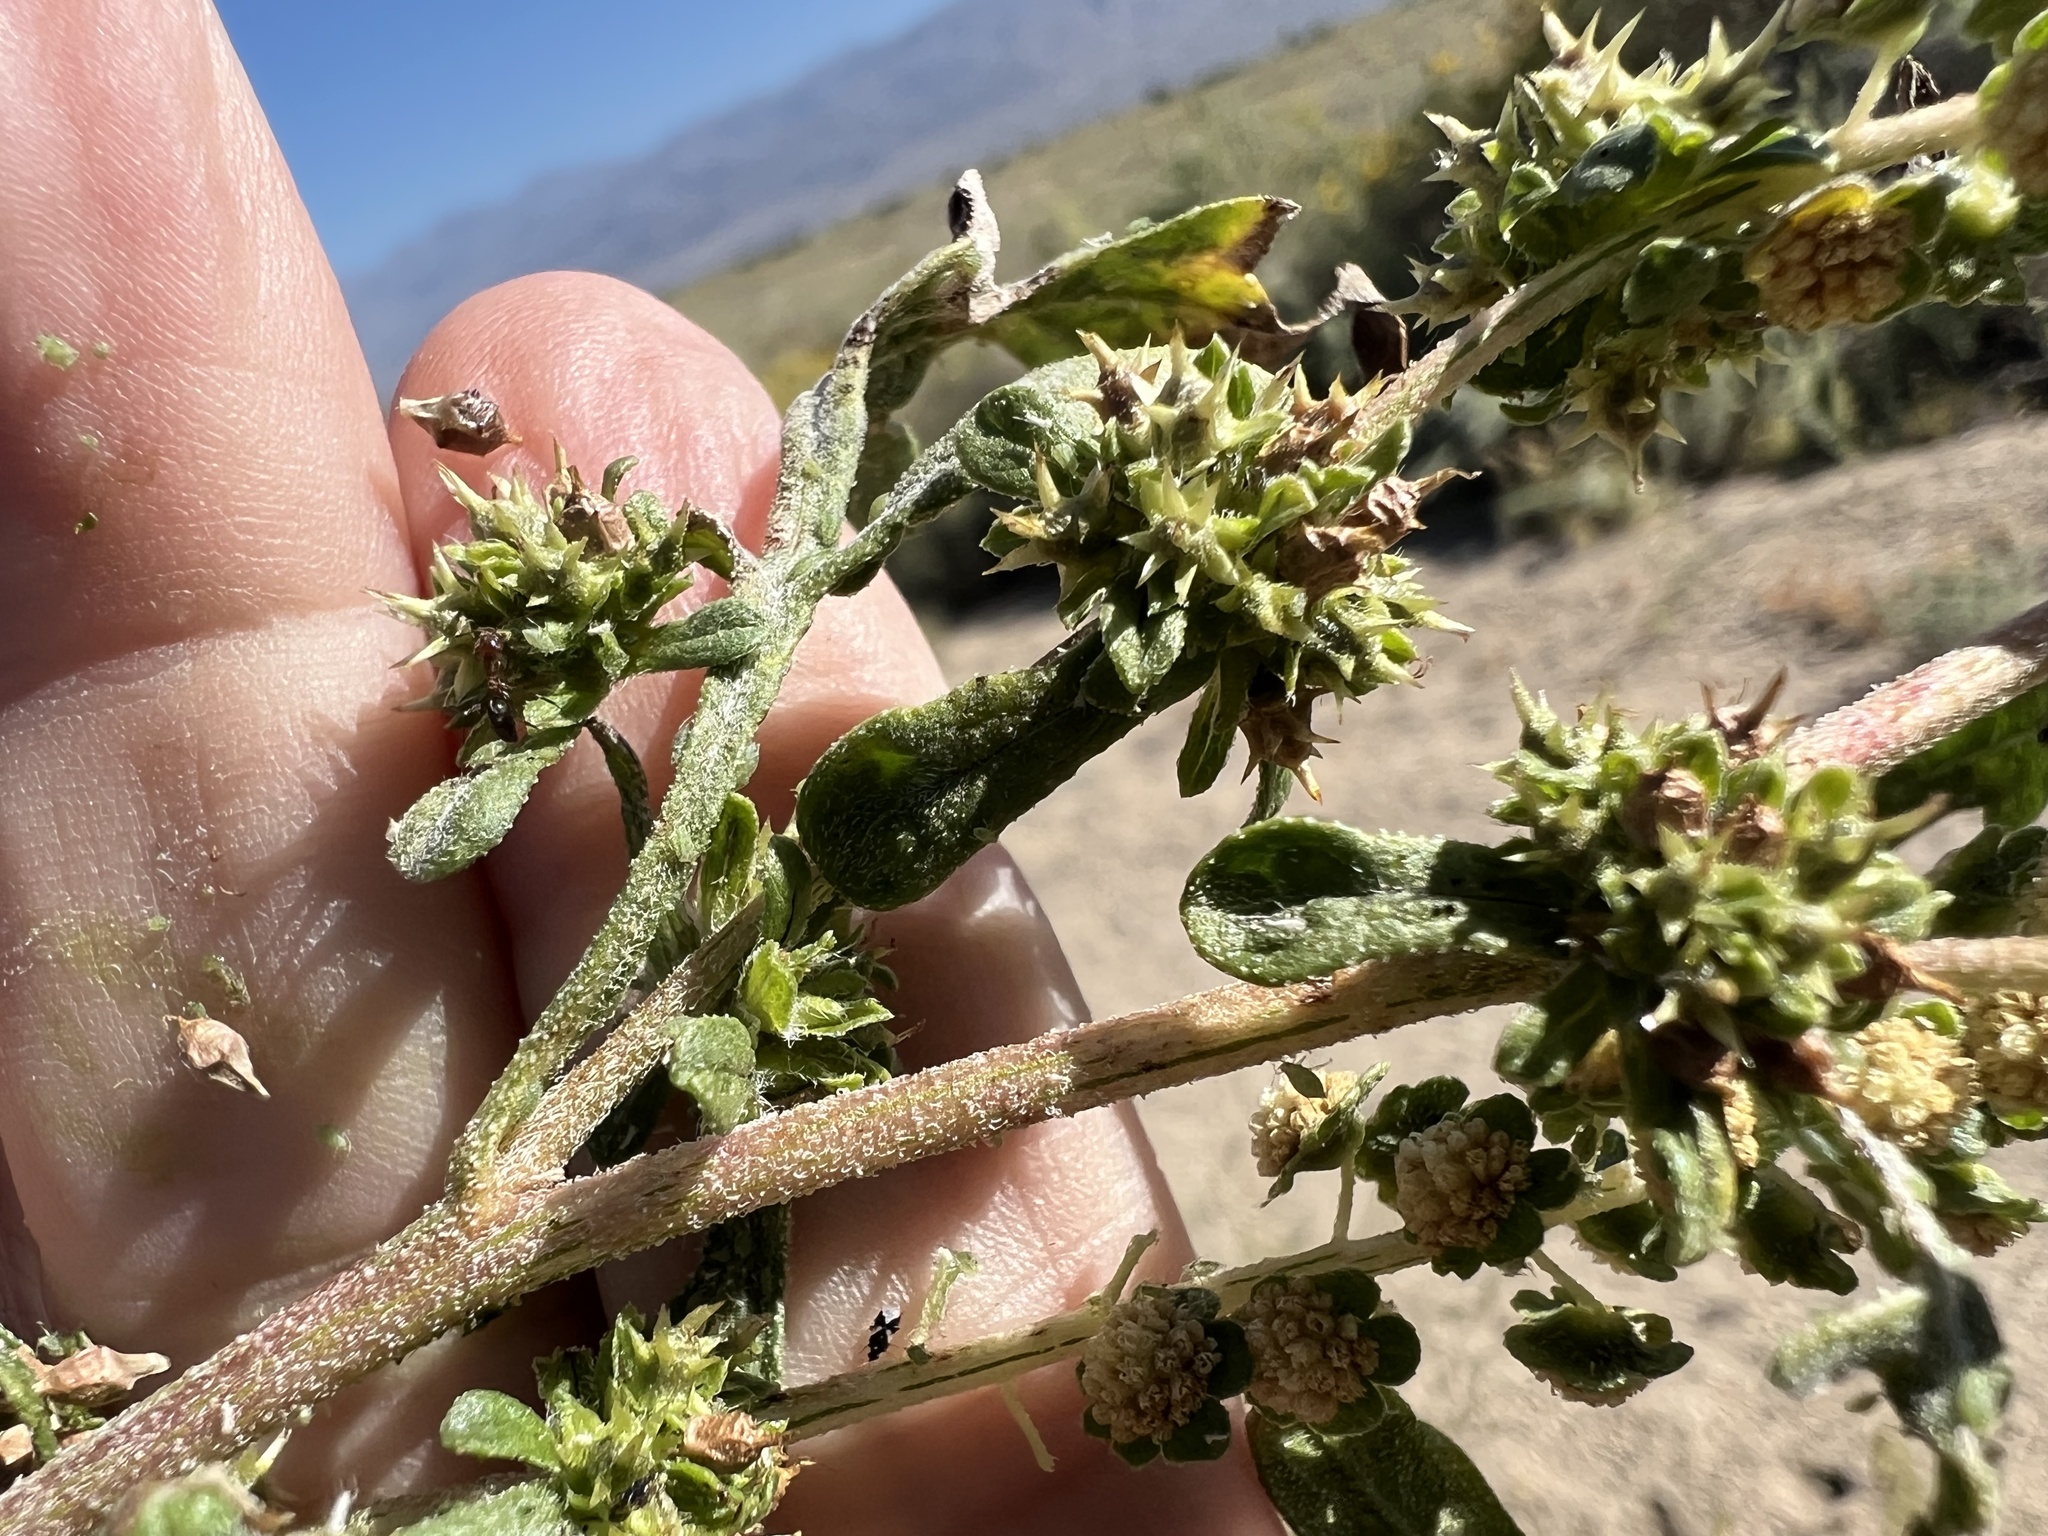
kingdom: Plantae
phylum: Tracheophyta
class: Magnoliopsida
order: Asterales
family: Asteraceae
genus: Ambrosia
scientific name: Ambrosia acanthicarpa
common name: Hooker's bur ragweed
